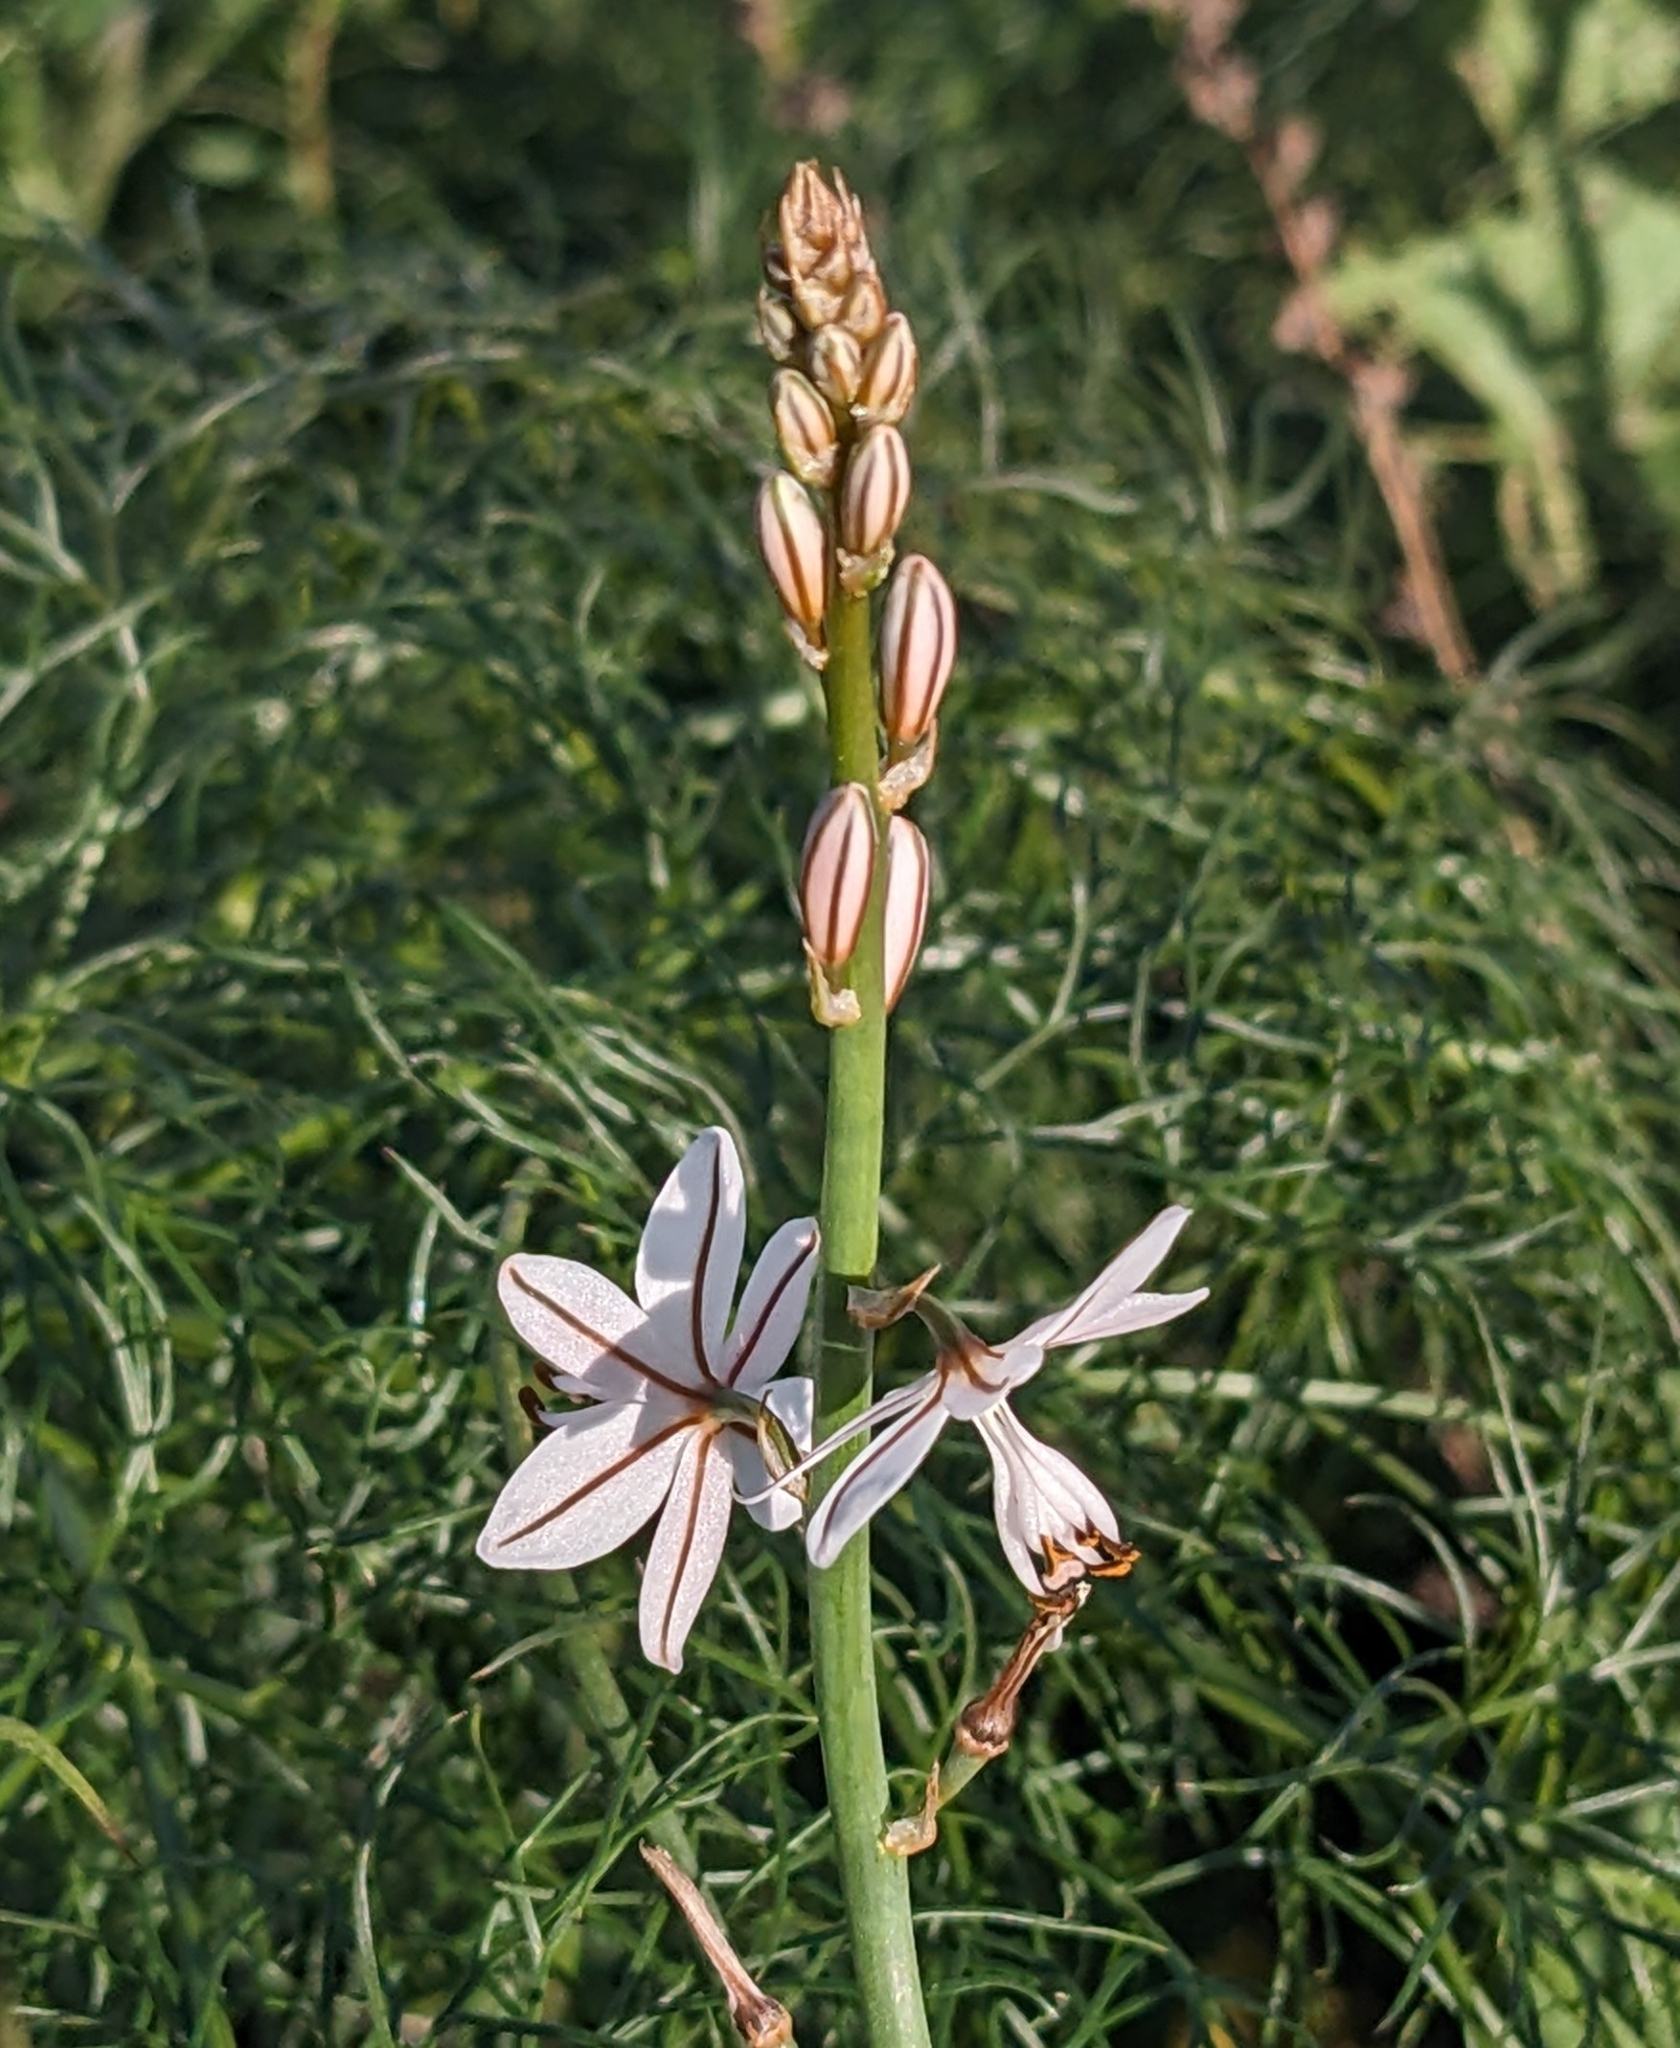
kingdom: Plantae
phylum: Tracheophyta
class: Liliopsida
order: Asparagales
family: Asphodelaceae
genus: Asphodelus
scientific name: Asphodelus fistulosus
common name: Onionweed
